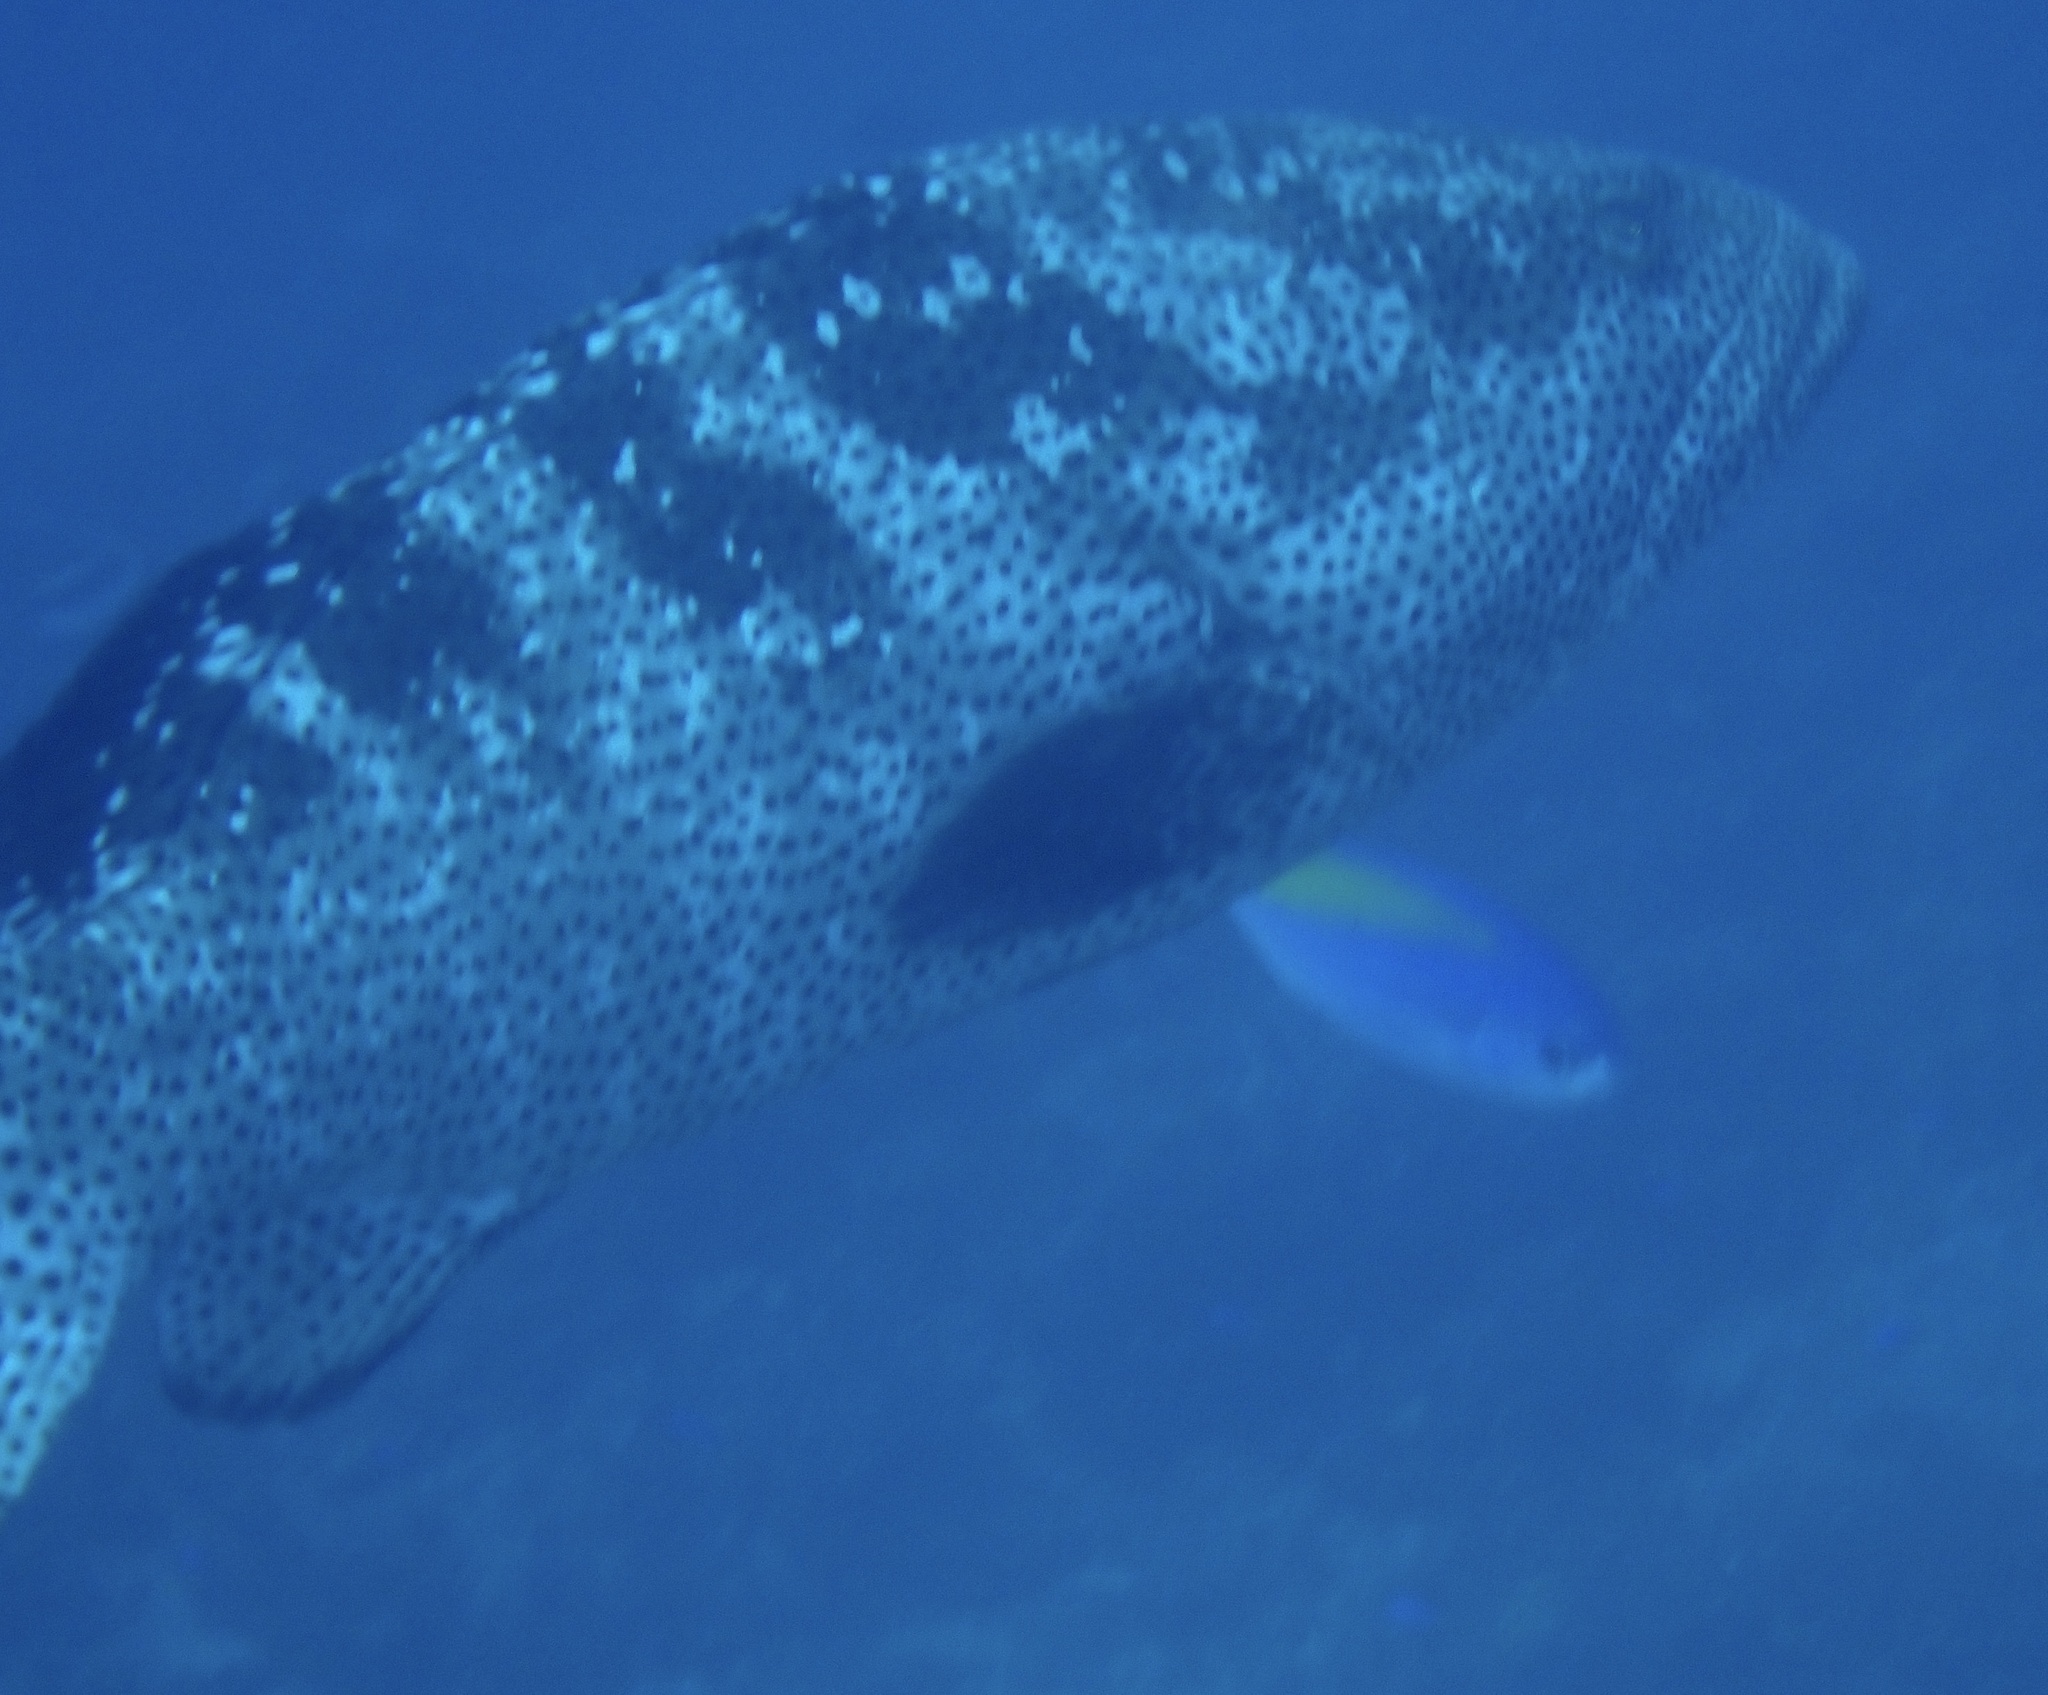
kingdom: Animalia
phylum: Chordata
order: Perciformes
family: Serranidae
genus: Epinephelus
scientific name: Epinephelus malabaricus
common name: Malabar grouper
